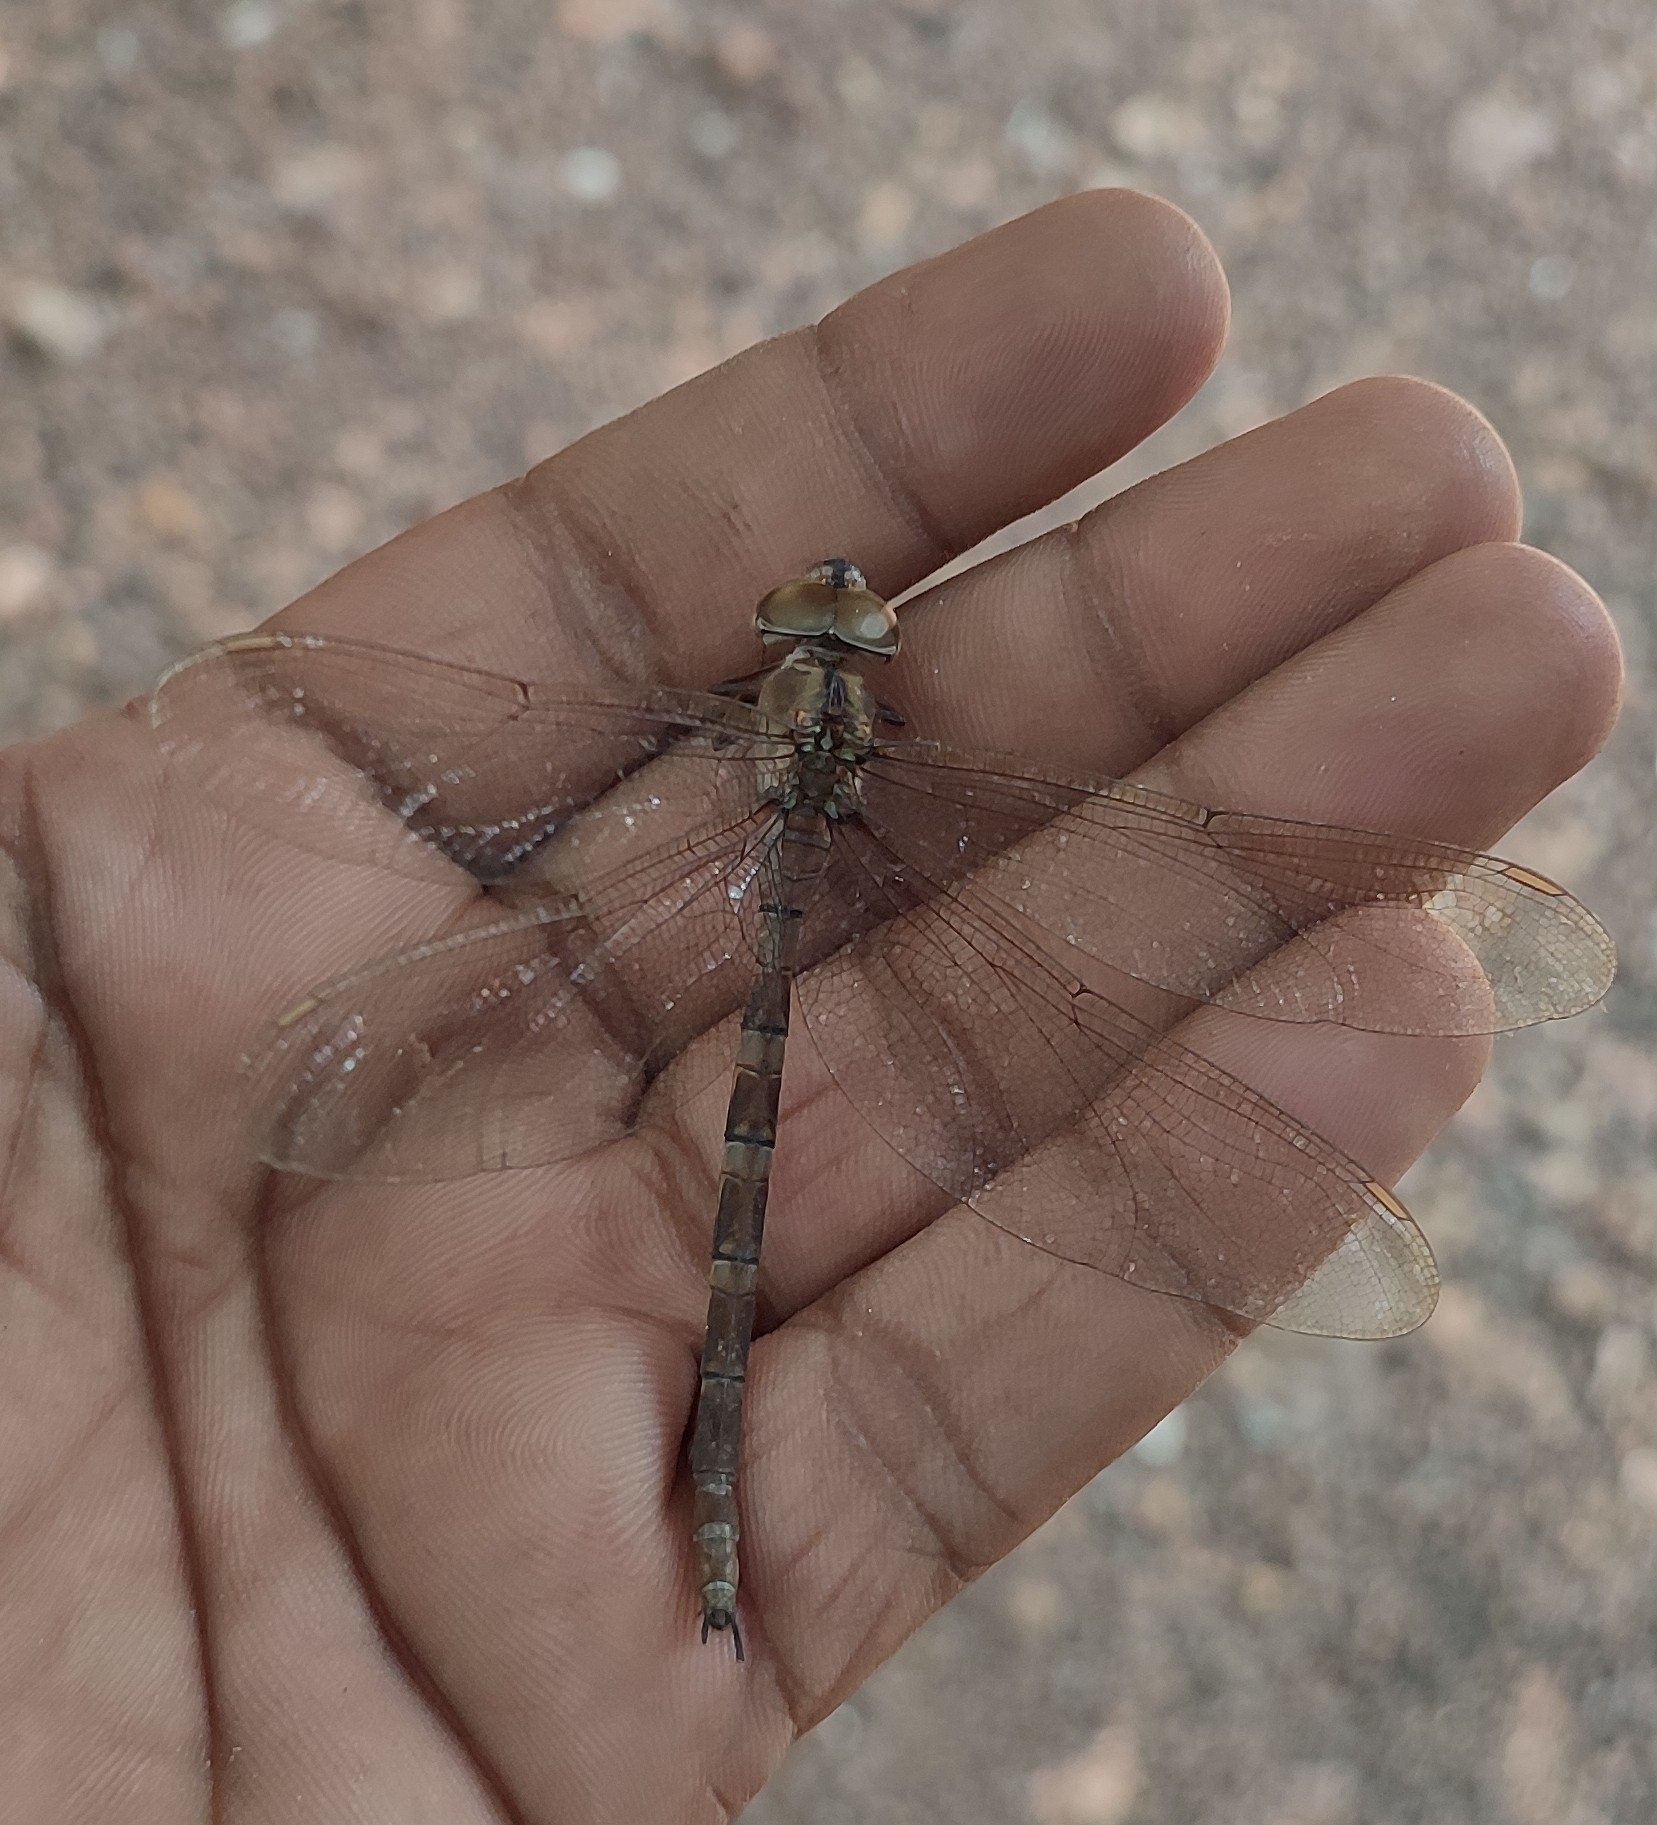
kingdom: Animalia
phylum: Arthropoda
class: Insecta
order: Odonata
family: Aeshnidae
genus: Gynacantha
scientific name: Gynacantha dravida
